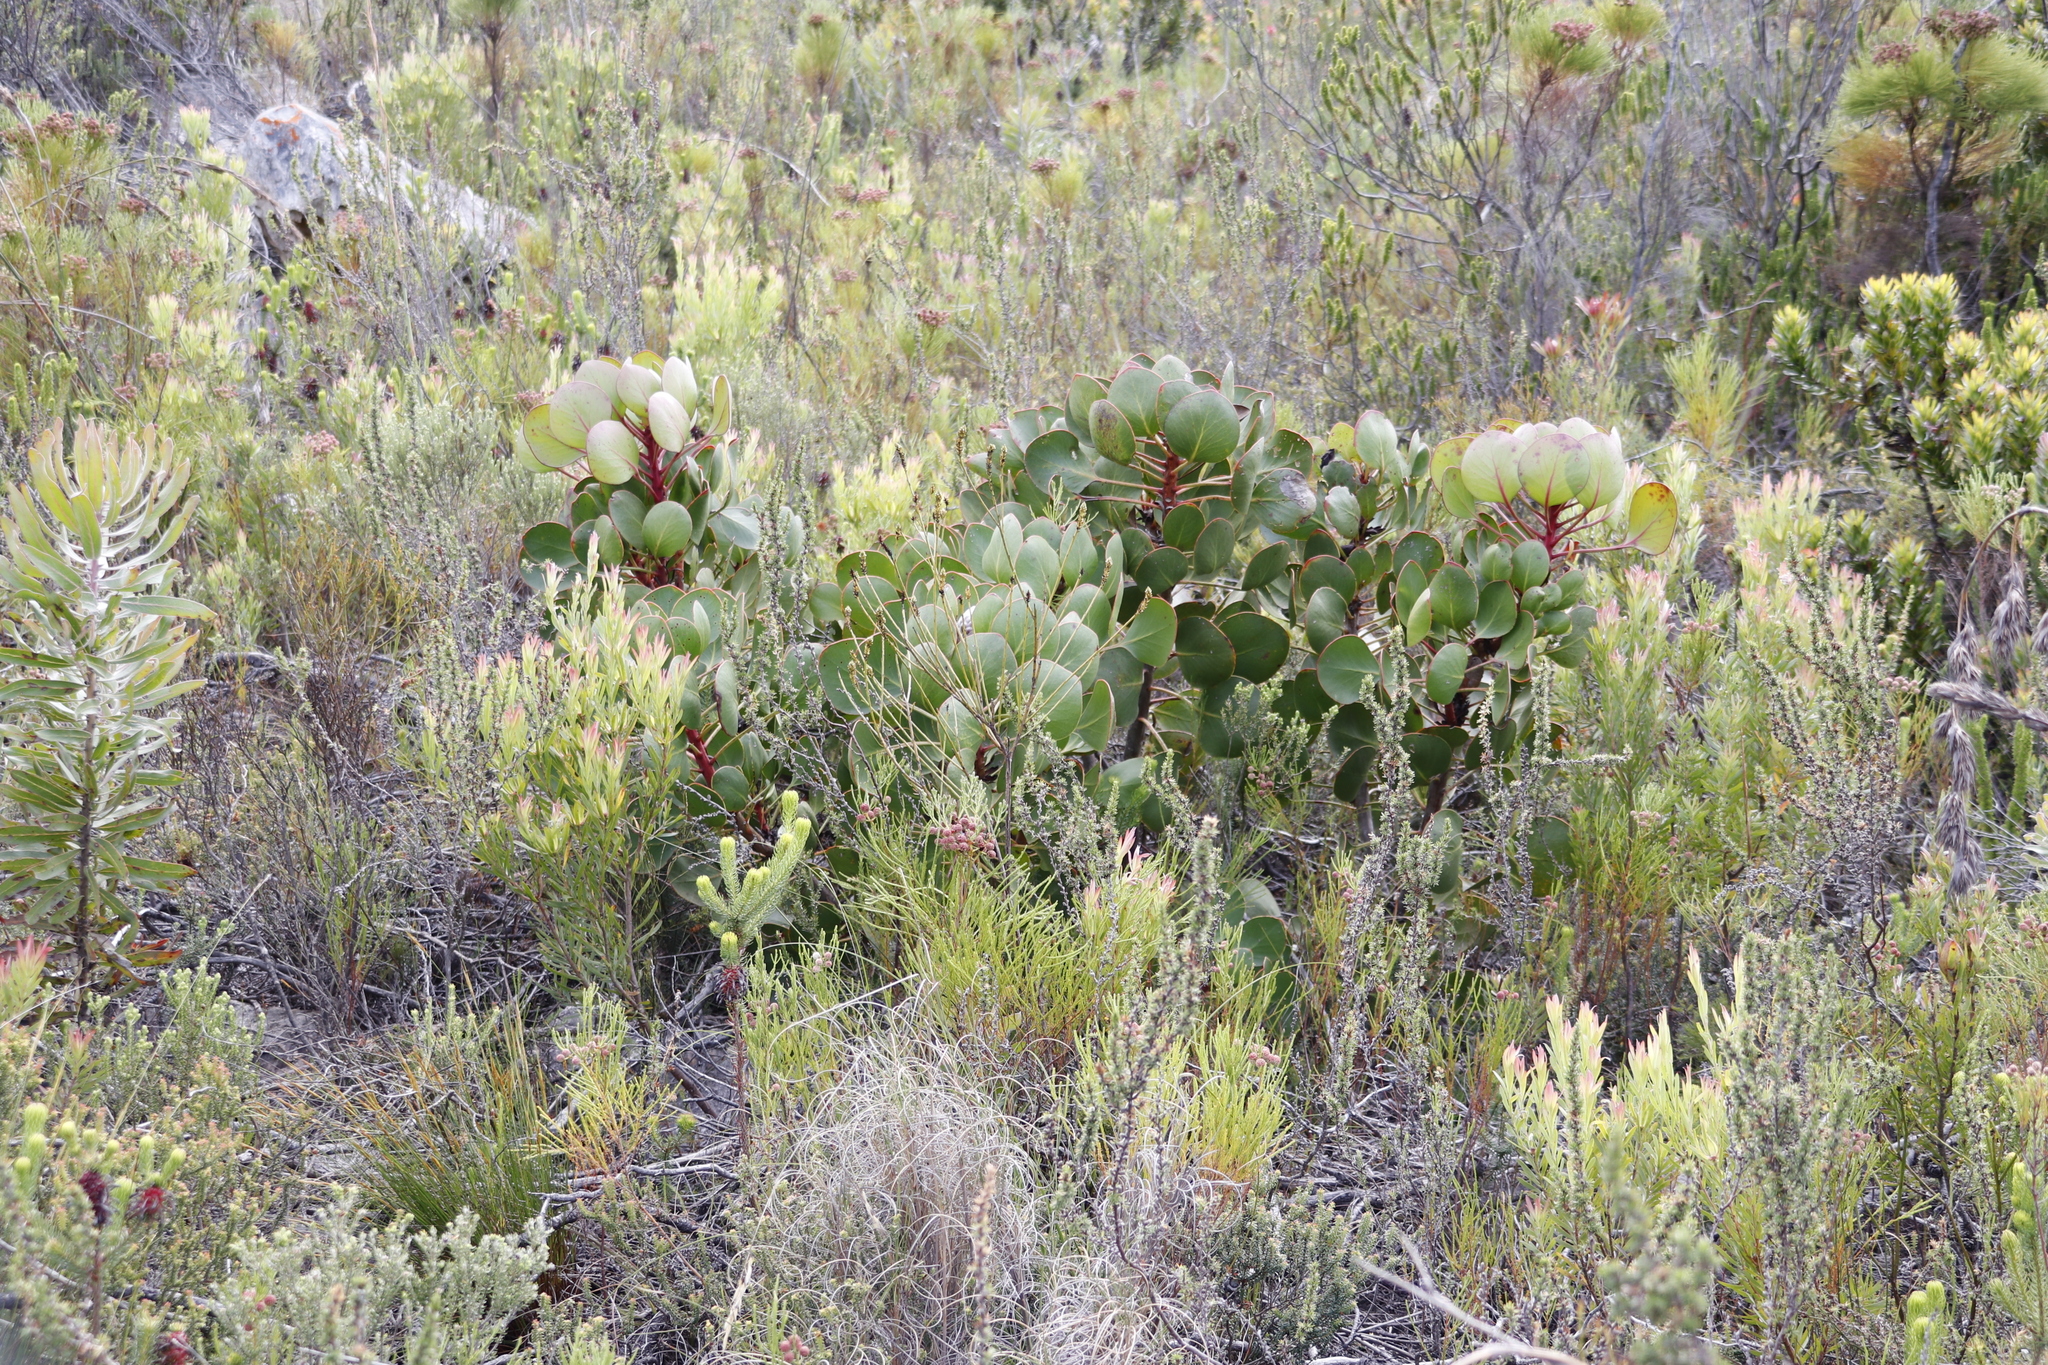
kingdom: Plantae
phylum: Tracheophyta
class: Magnoliopsida
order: Proteales
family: Proteaceae
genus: Protea
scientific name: Protea cynaroides
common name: King protea
